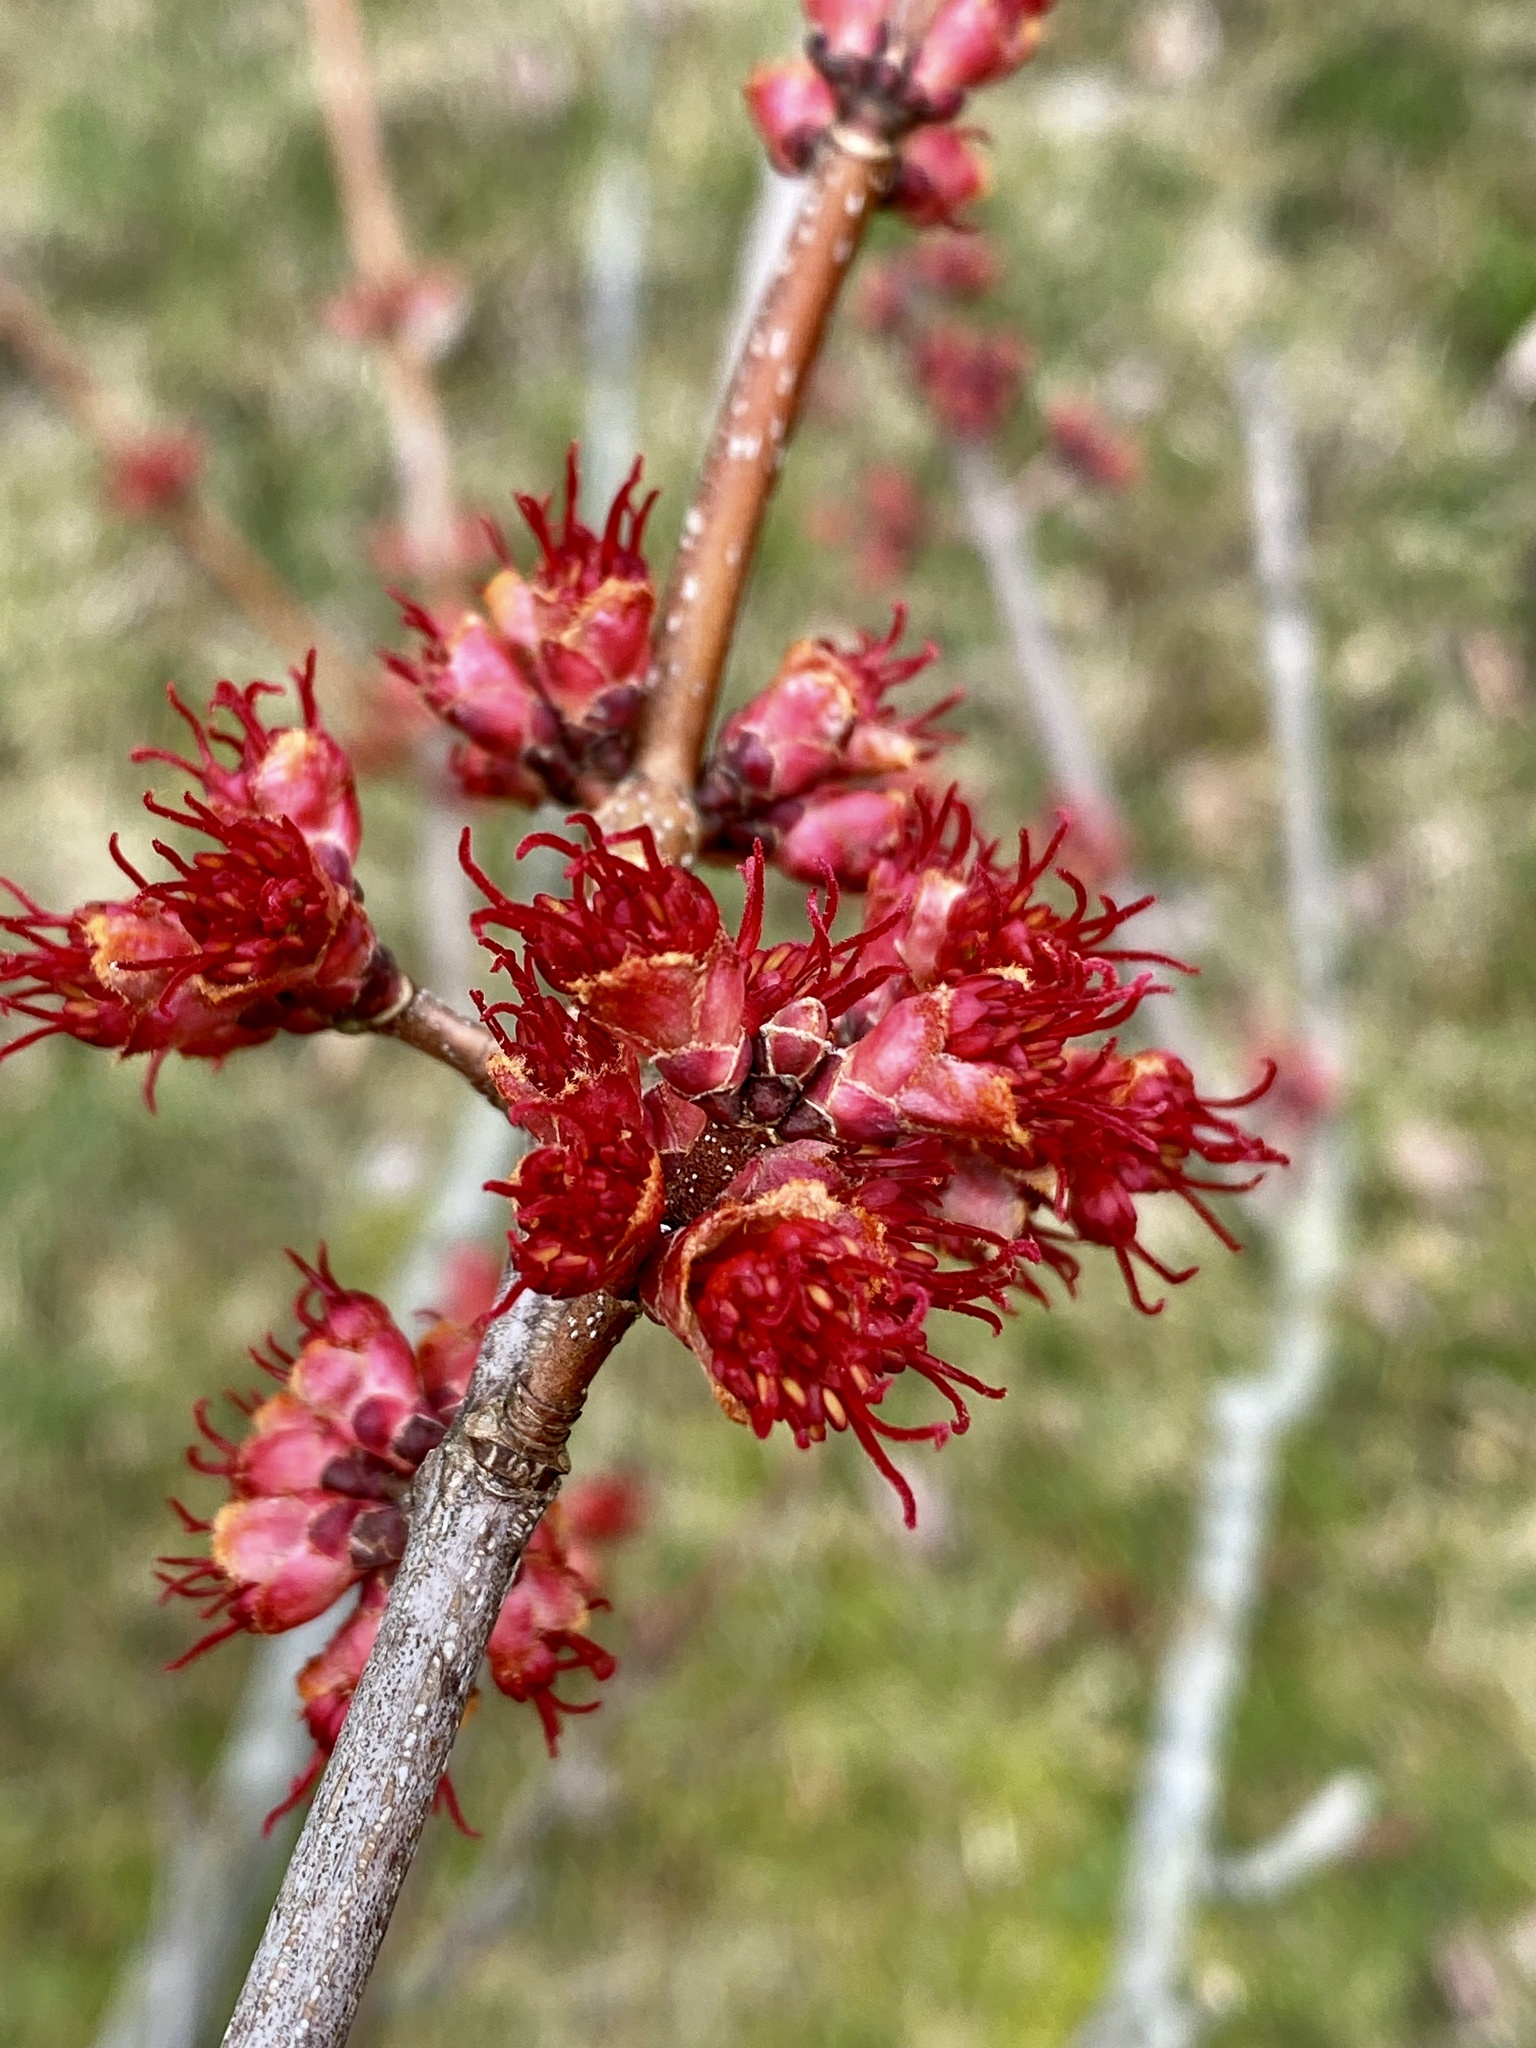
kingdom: Plantae
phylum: Tracheophyta
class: Magnoliopsida
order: Sapindales
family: Sapindaceae
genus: Acer
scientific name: Acer rubrum
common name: Red maple
